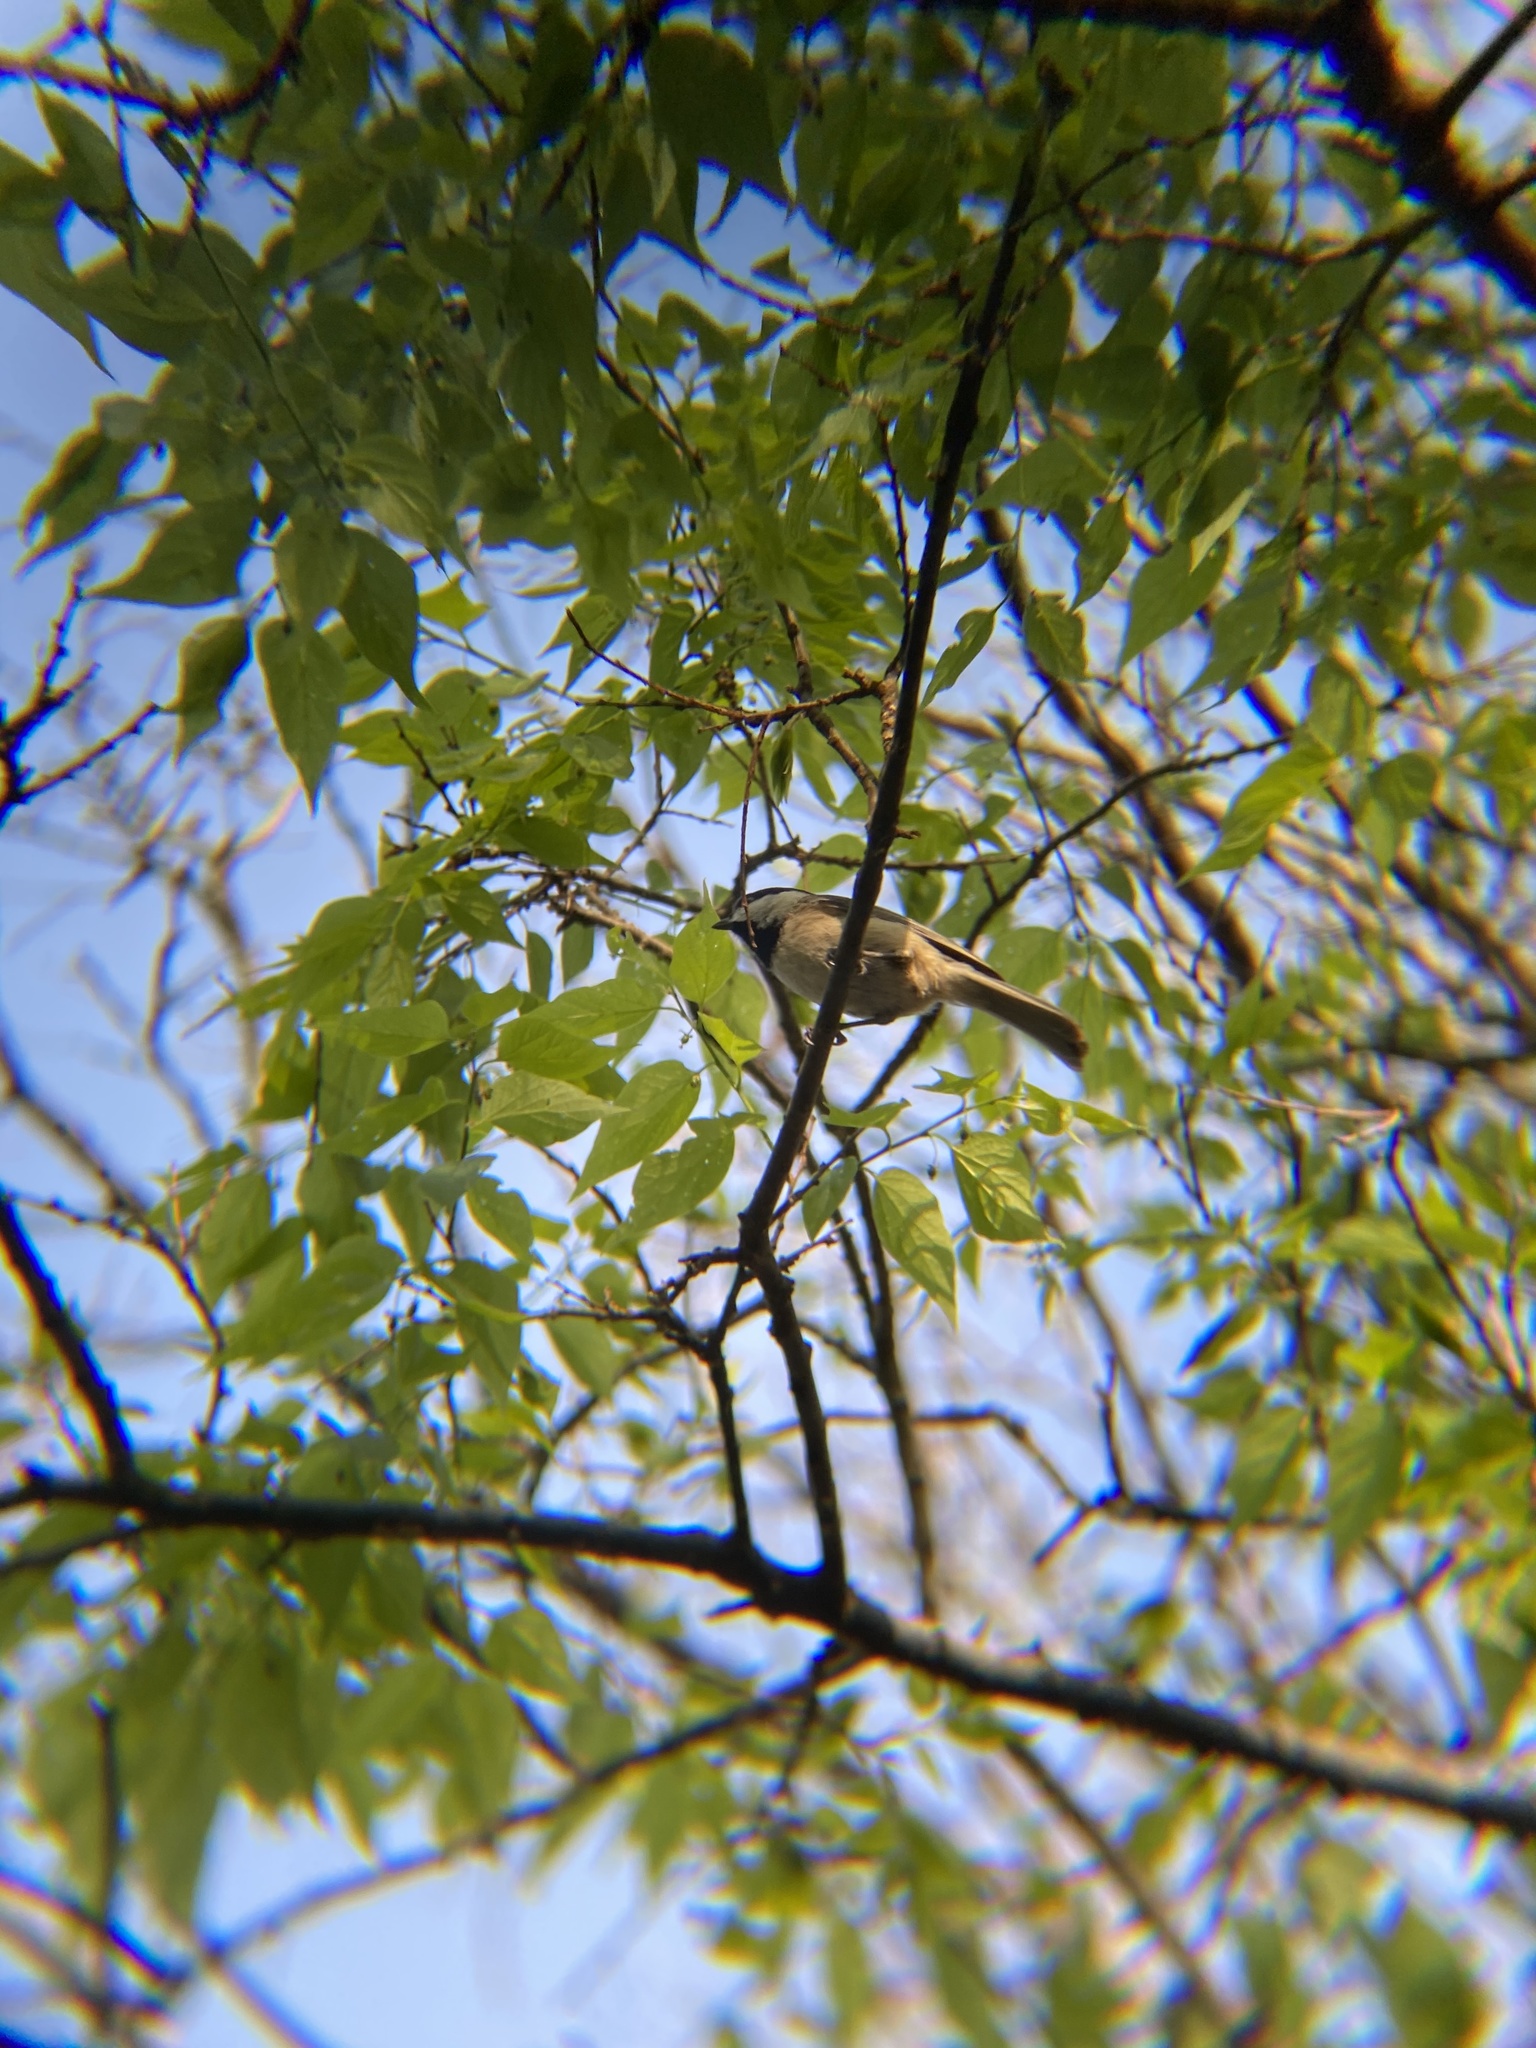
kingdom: Animalia
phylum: Chordata
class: Aves
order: Passeriformes
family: Paridae
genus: Poecile
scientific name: Poecile carolinensis
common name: Carolina chickadee
